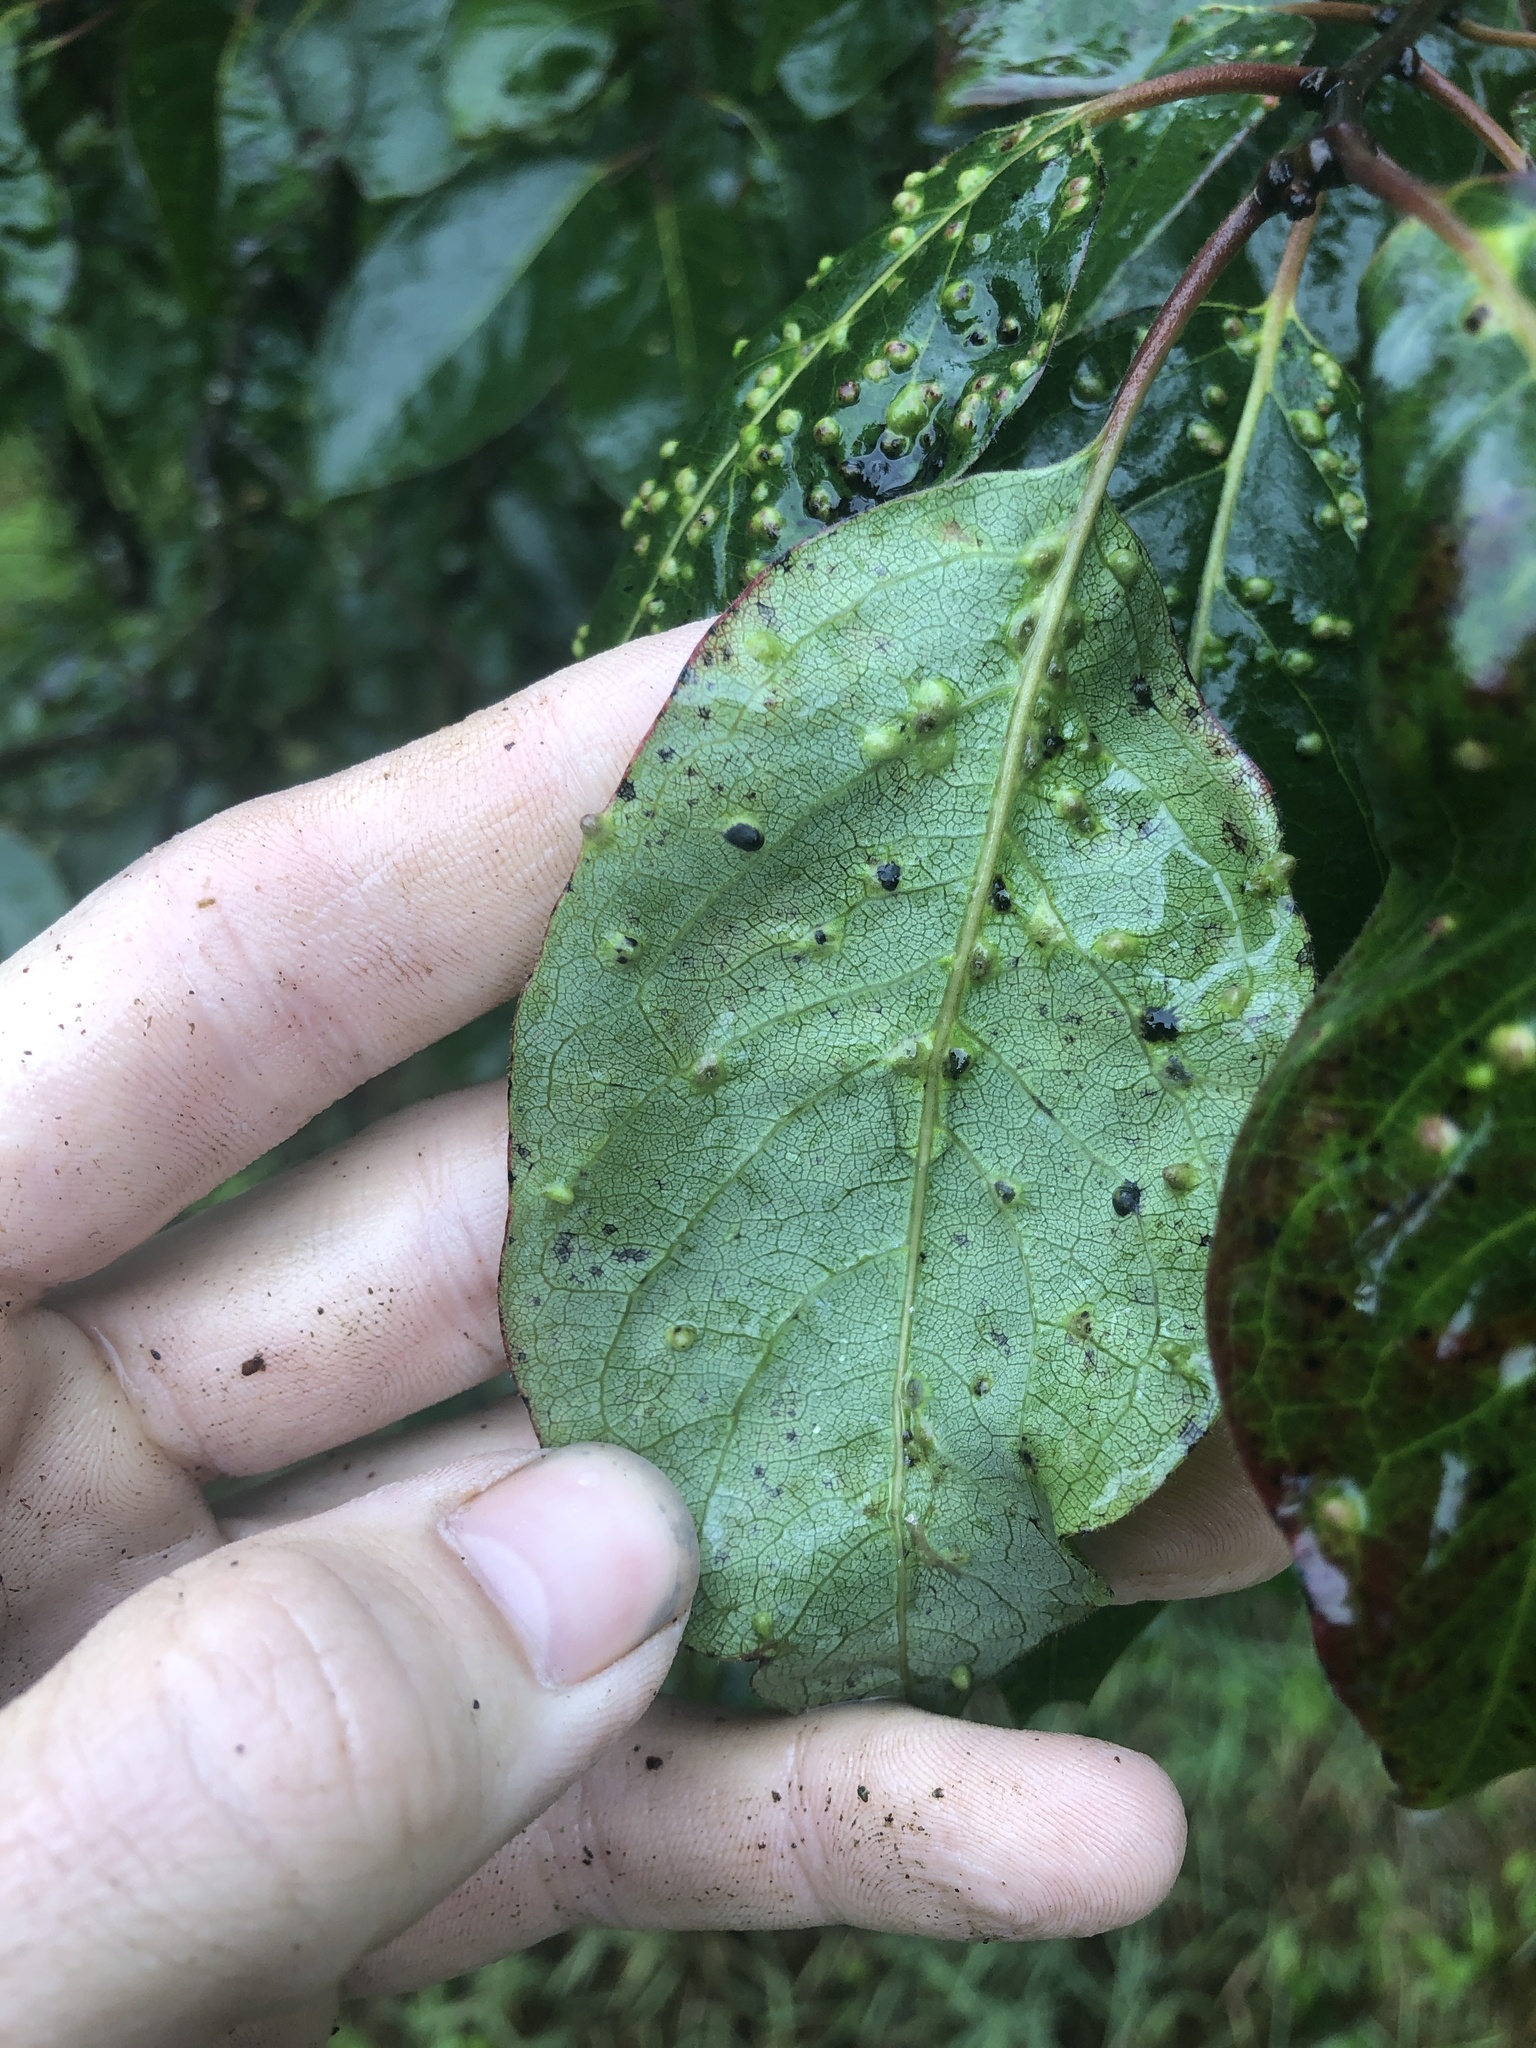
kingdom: Animalia
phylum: Arthropoda
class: Arachnida
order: Trombidiformes
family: Eriophyidae
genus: Aceria
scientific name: Aceria
